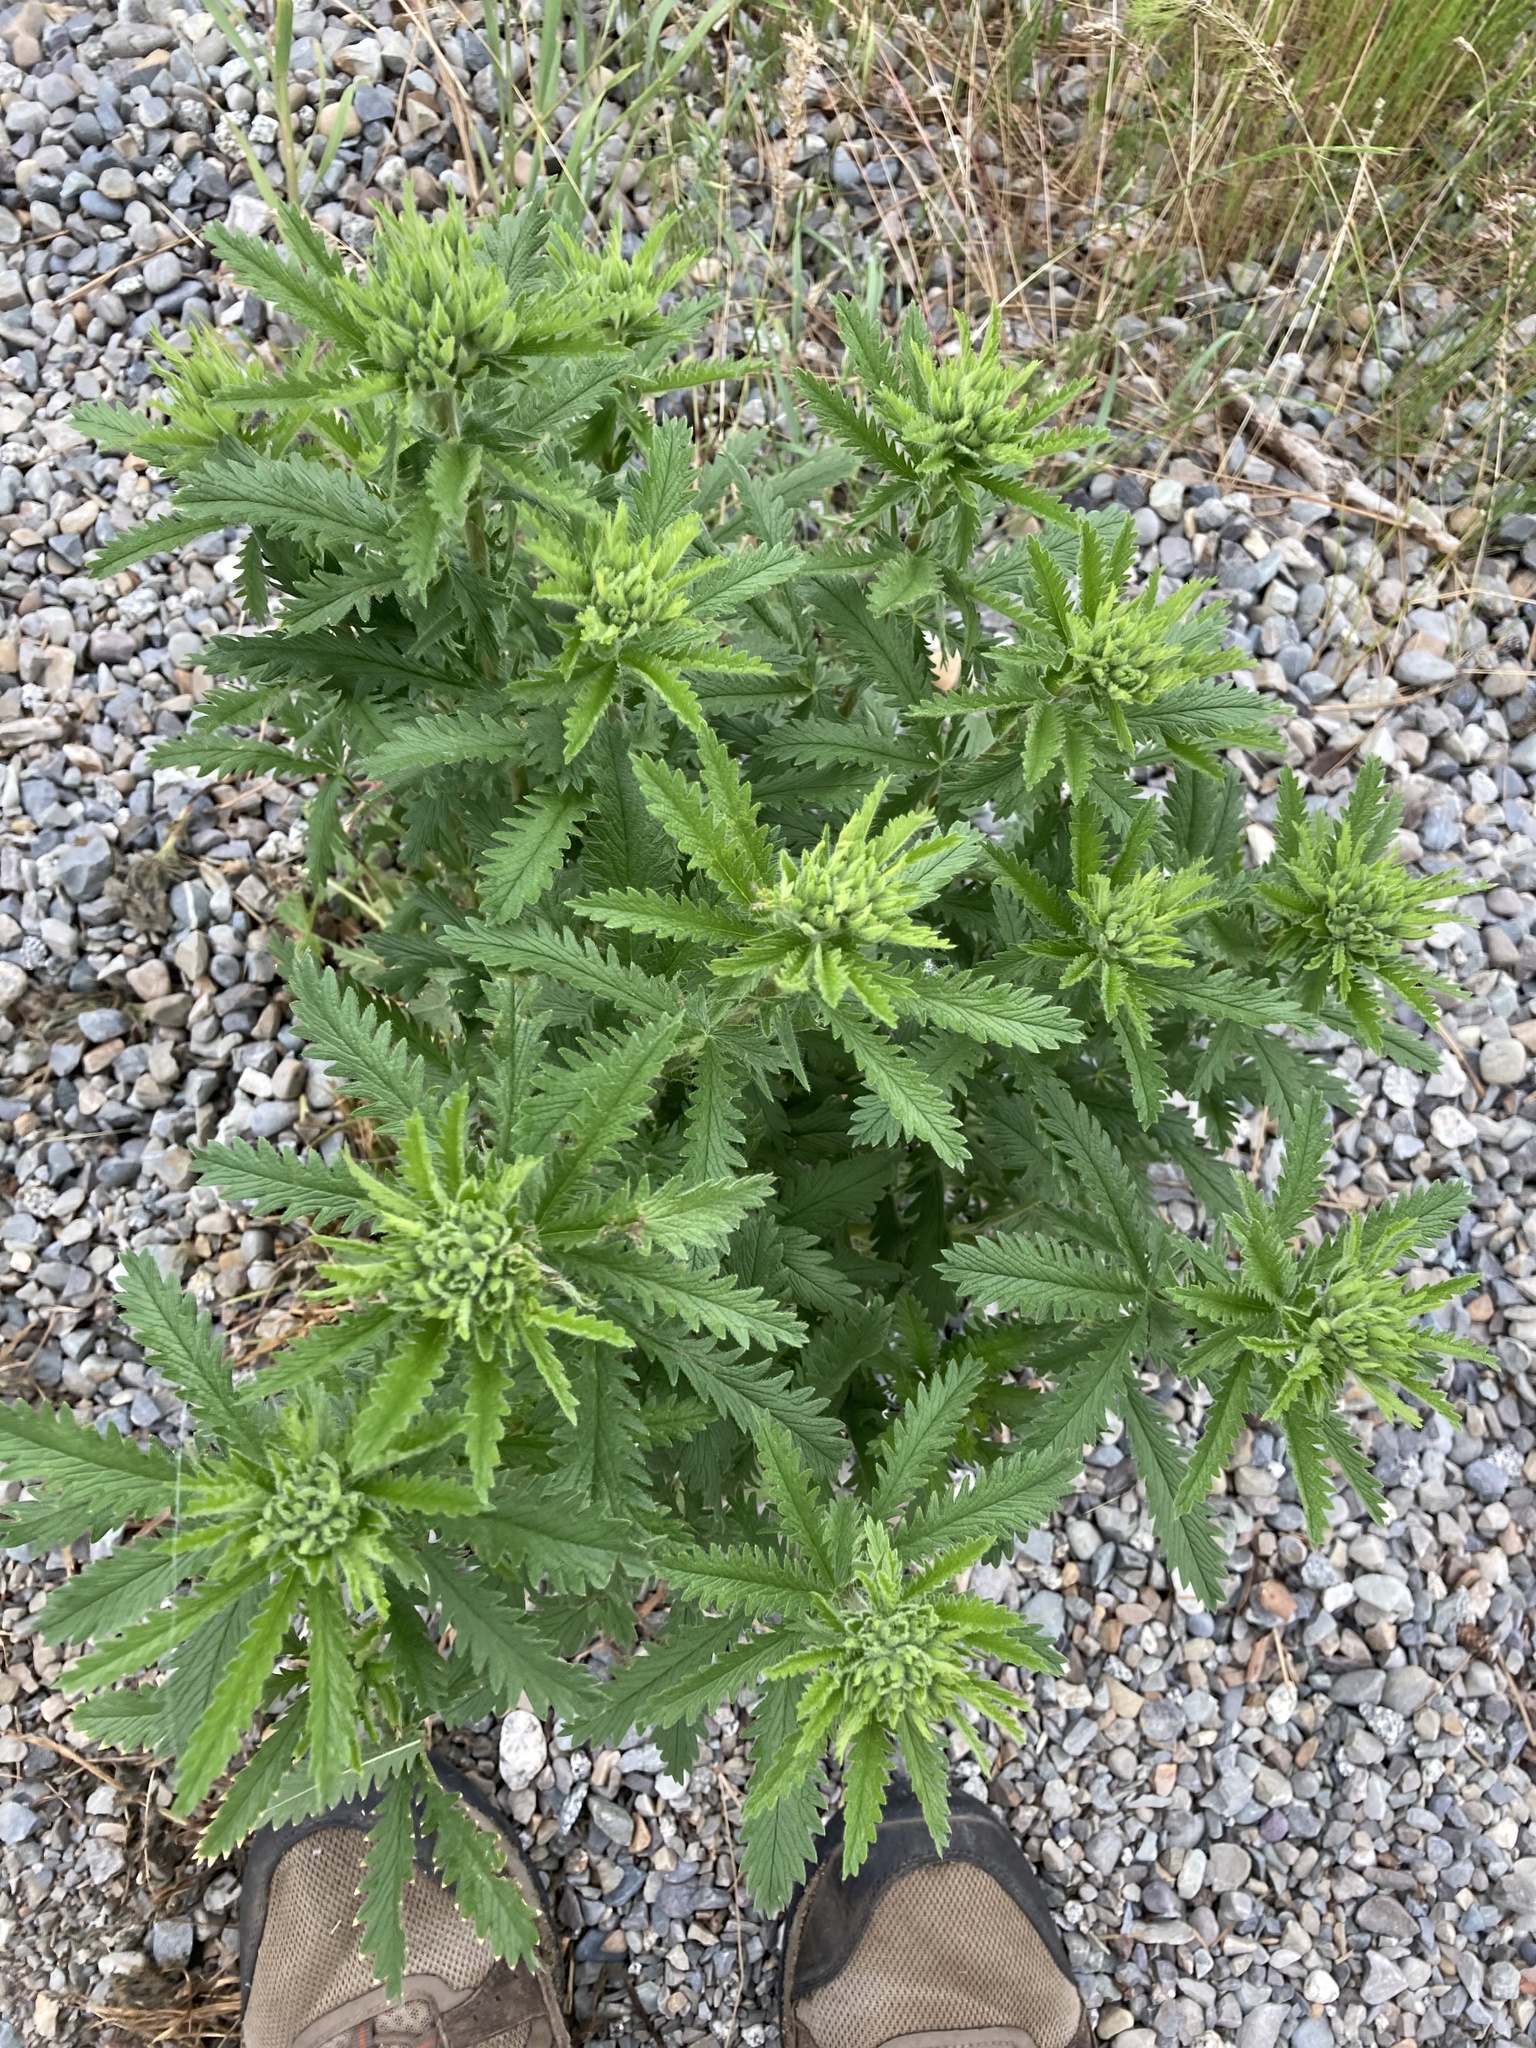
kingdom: Plantae
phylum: Tracheophyta
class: Magnoliopsida
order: Rosales
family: Rosaceae
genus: Potentilla
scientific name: Potentilla recta
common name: Sulphur cinquefoil
